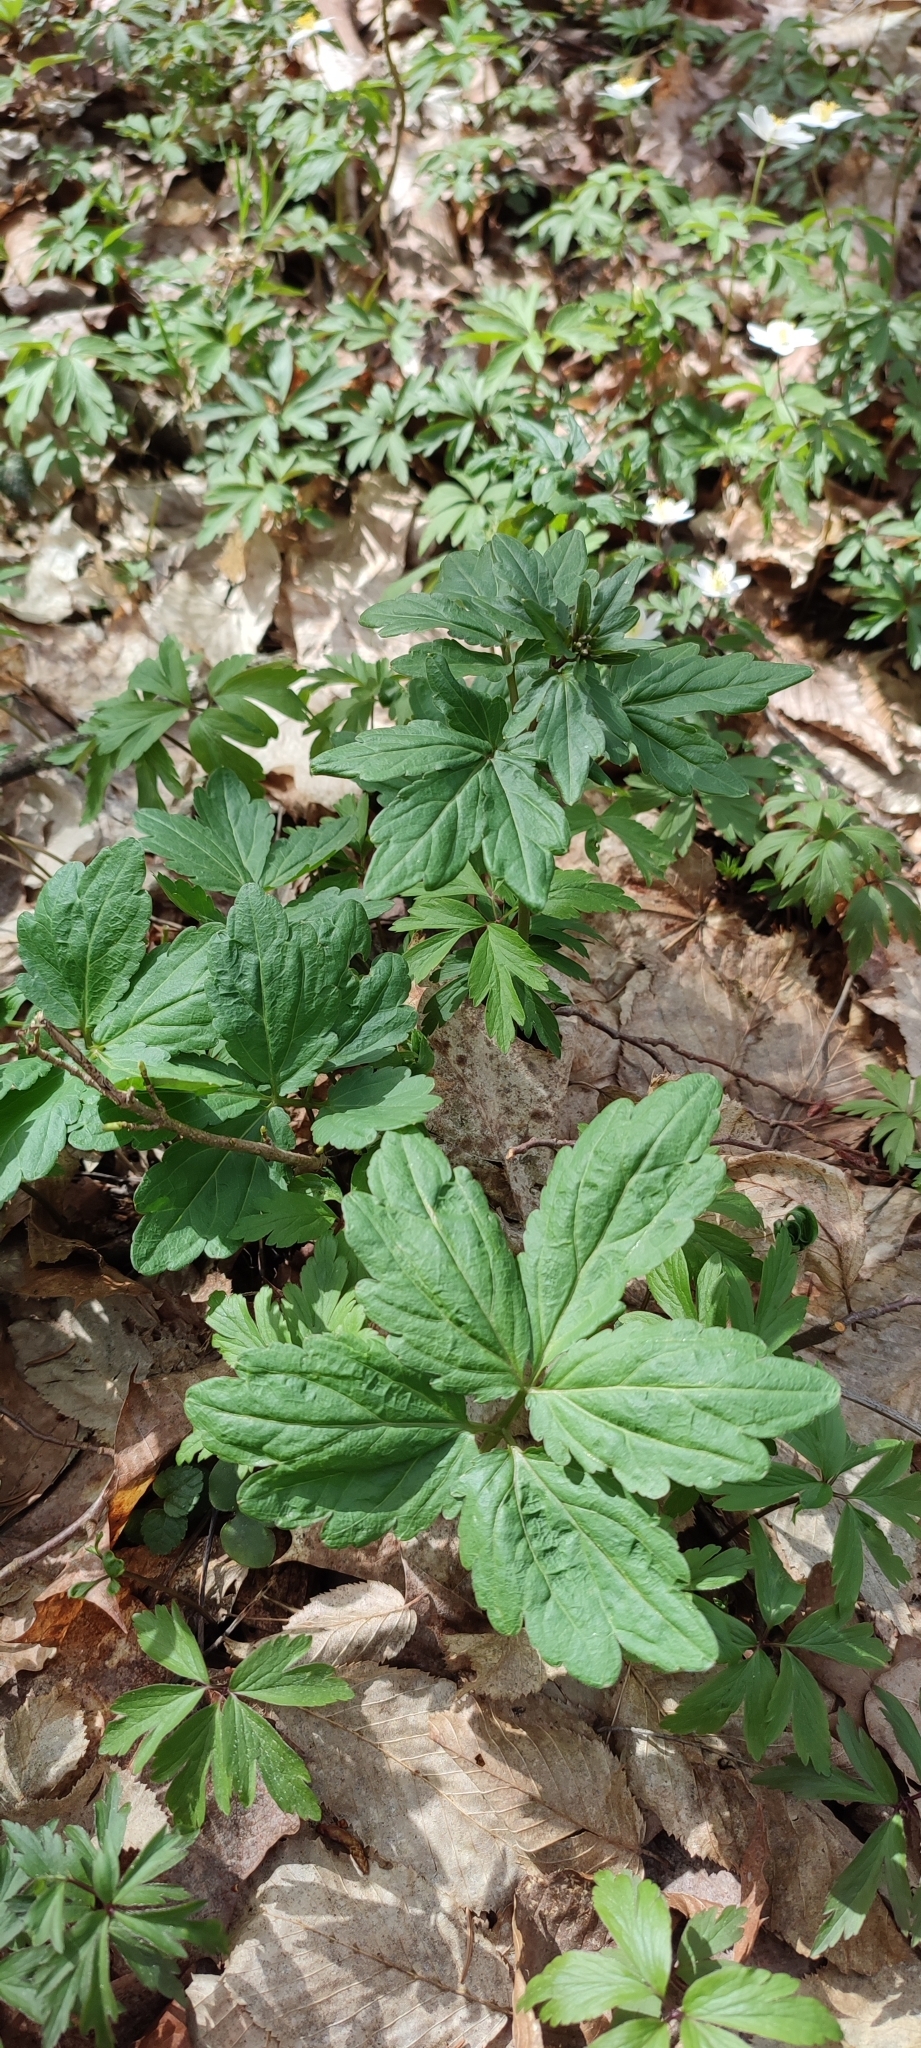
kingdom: Plantae
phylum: Tracheophyta
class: Magnoliopsida
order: Brassicales
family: Brassicaceae
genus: Cardamine
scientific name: Cardamine bulbifera
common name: Coralroot bittercress
